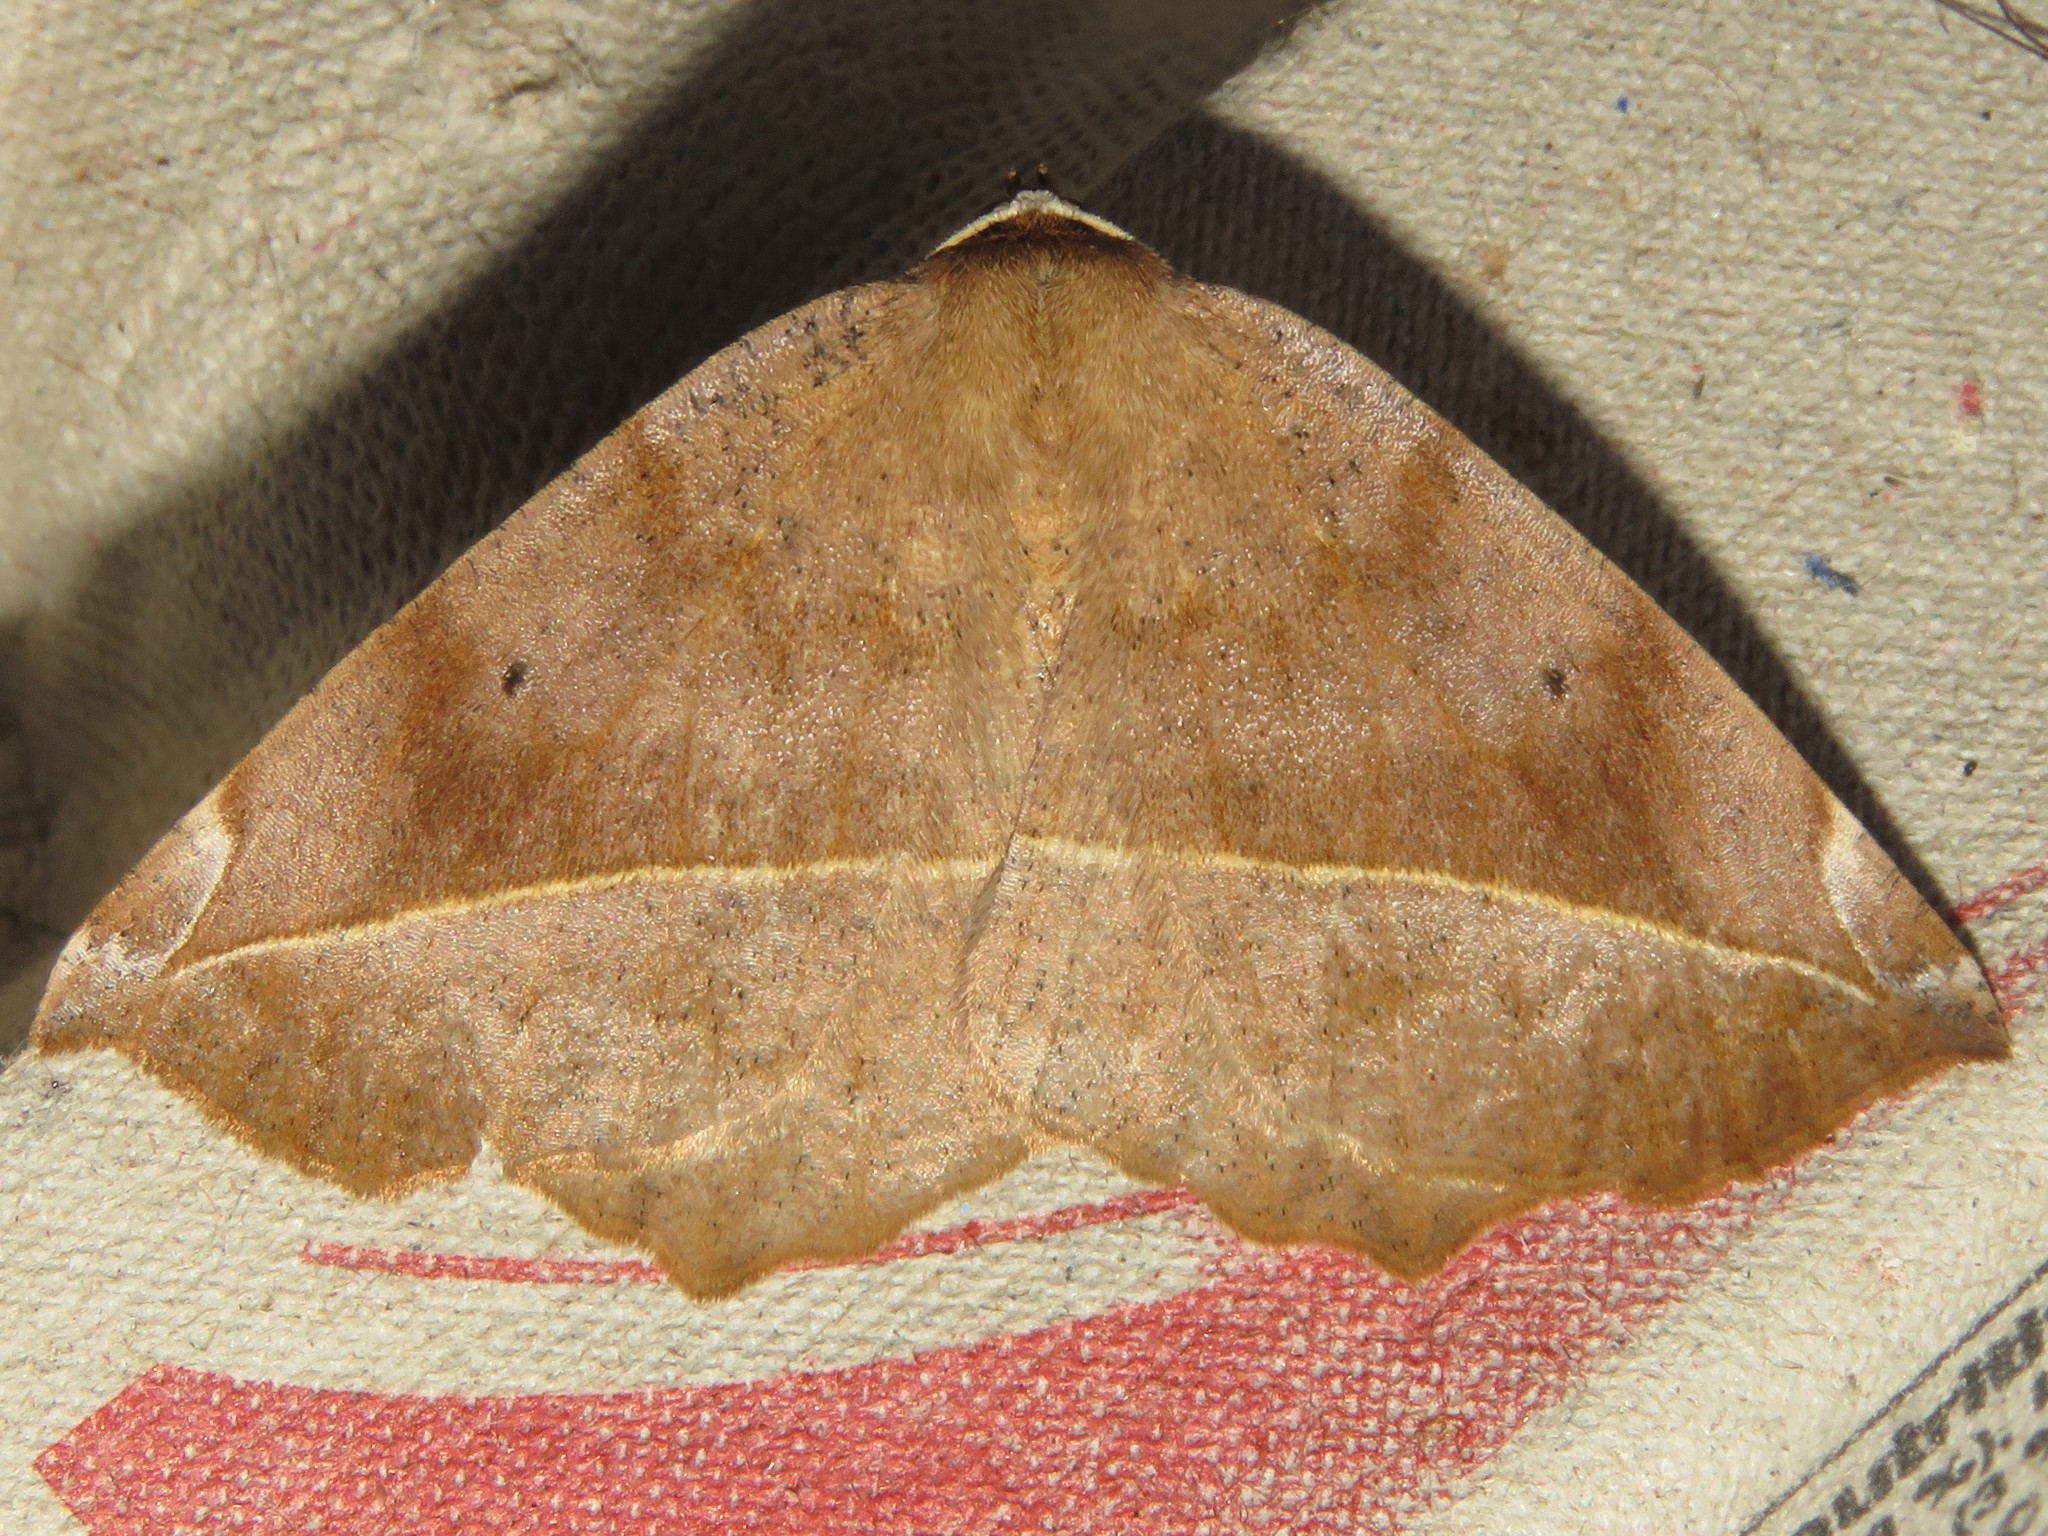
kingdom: Animalia
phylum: Arthropoda
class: Insecta
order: Lepidoptera
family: Geometridae
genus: Eutrapela
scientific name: Eutrapela clemataria
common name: Curved-toothed geometer
